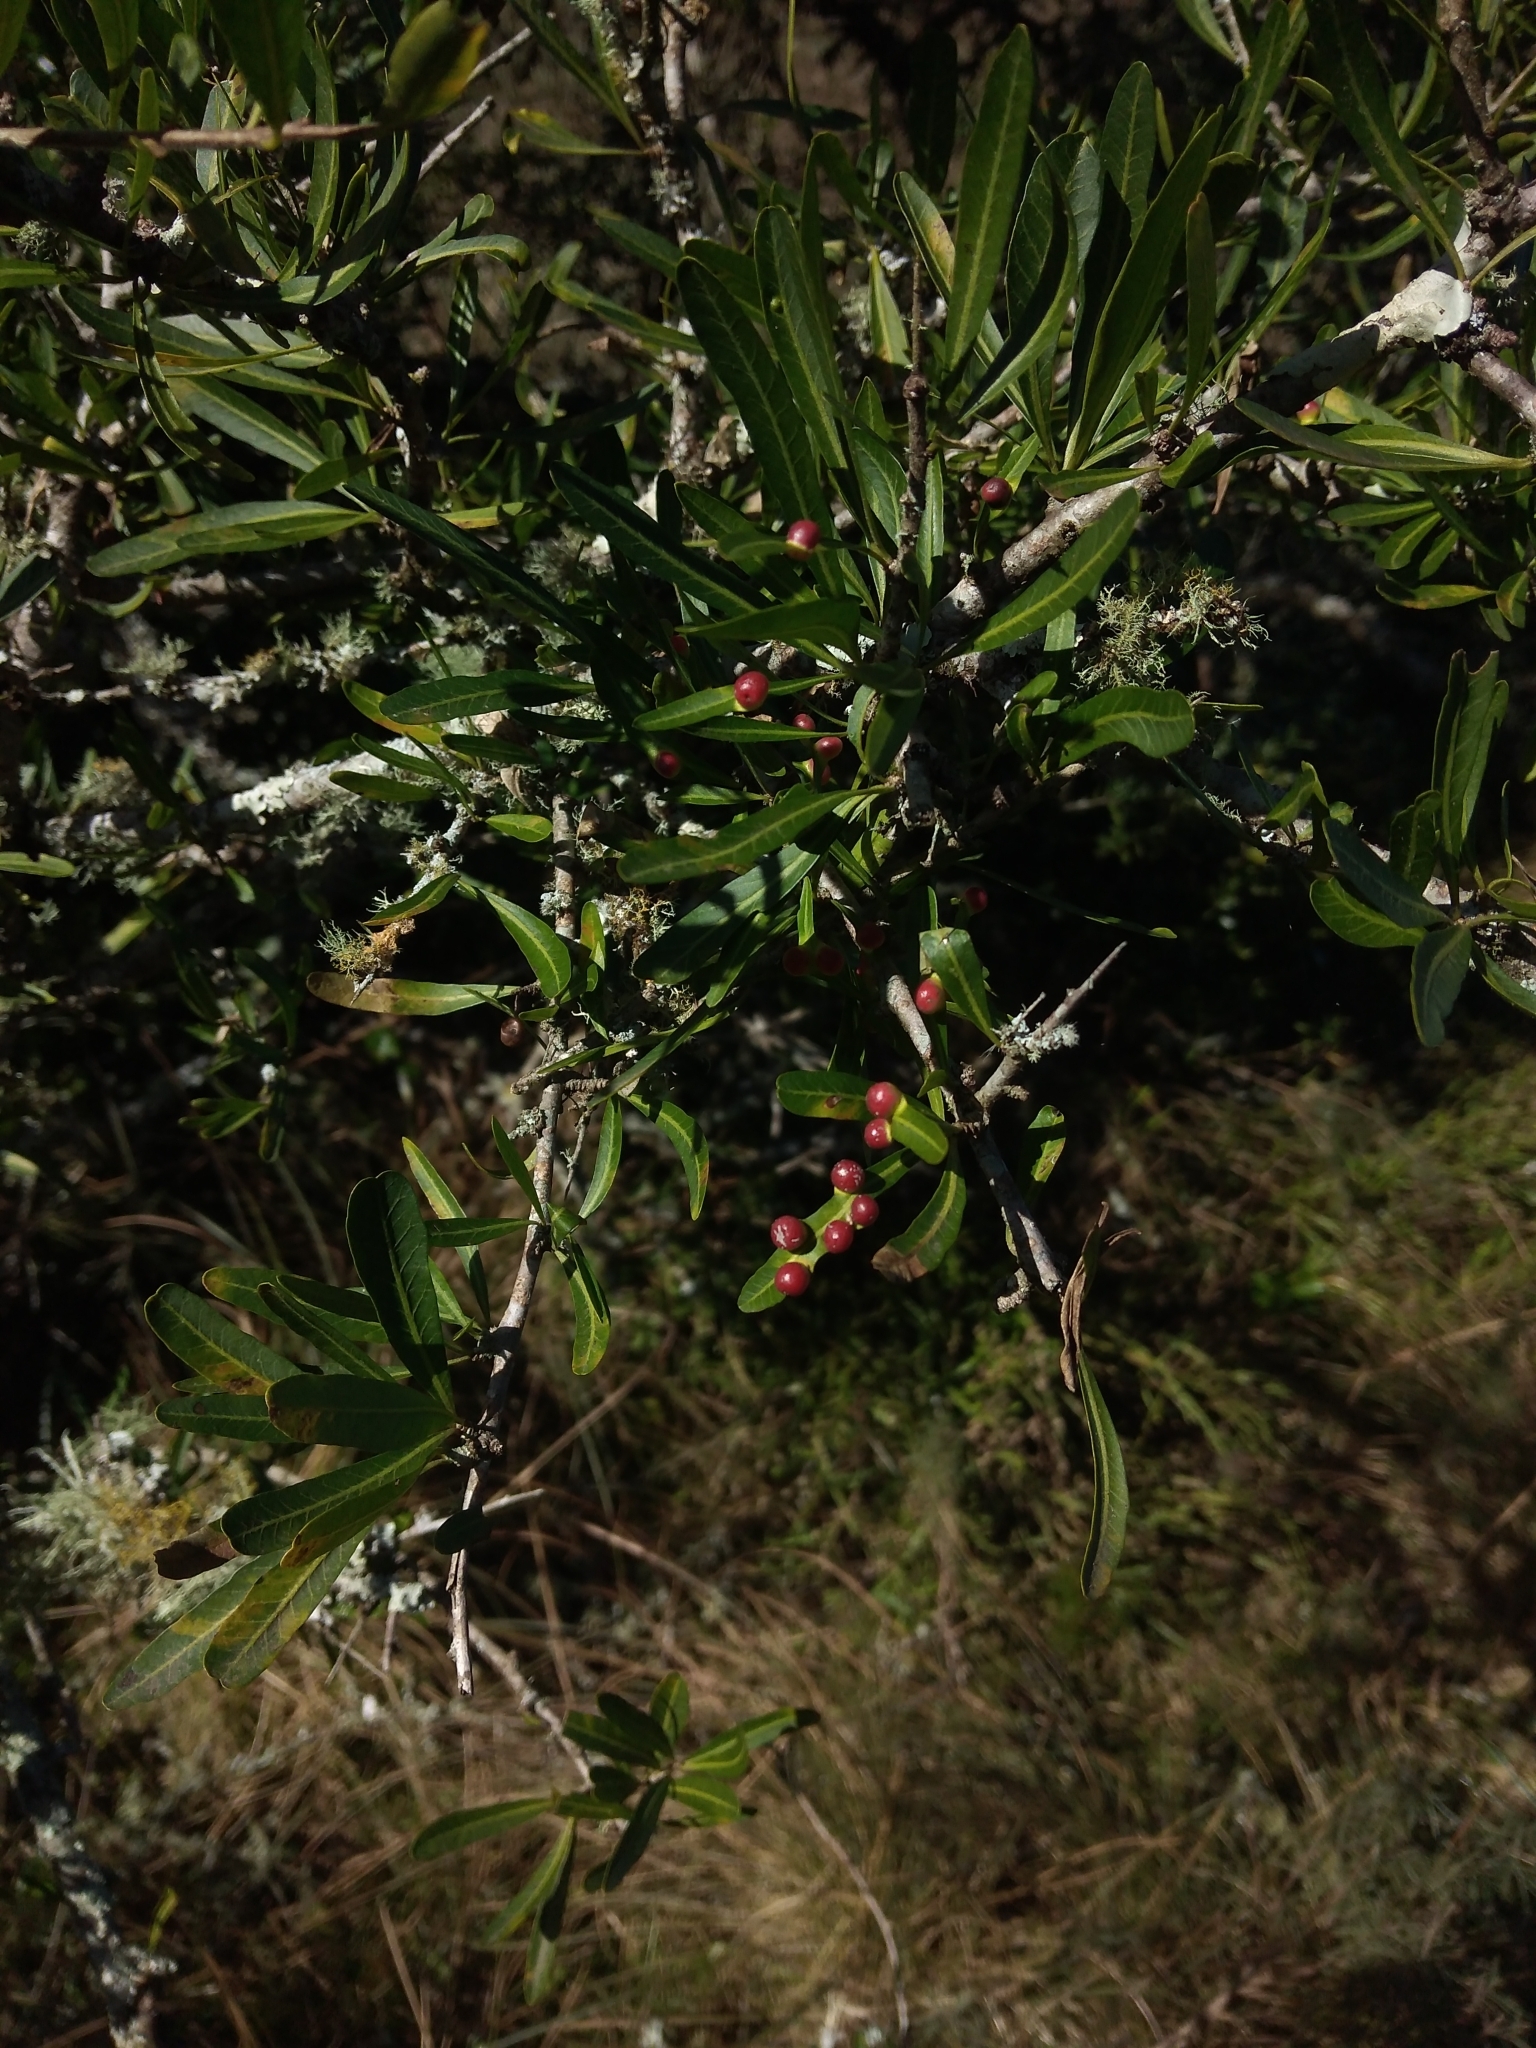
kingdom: Plantae
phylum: Tracheophyta
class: Magnoliopsida
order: Sapindales
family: Anacardiaceae
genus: Schinus
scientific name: Schinus longifolia
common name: Longleaf peppertree
